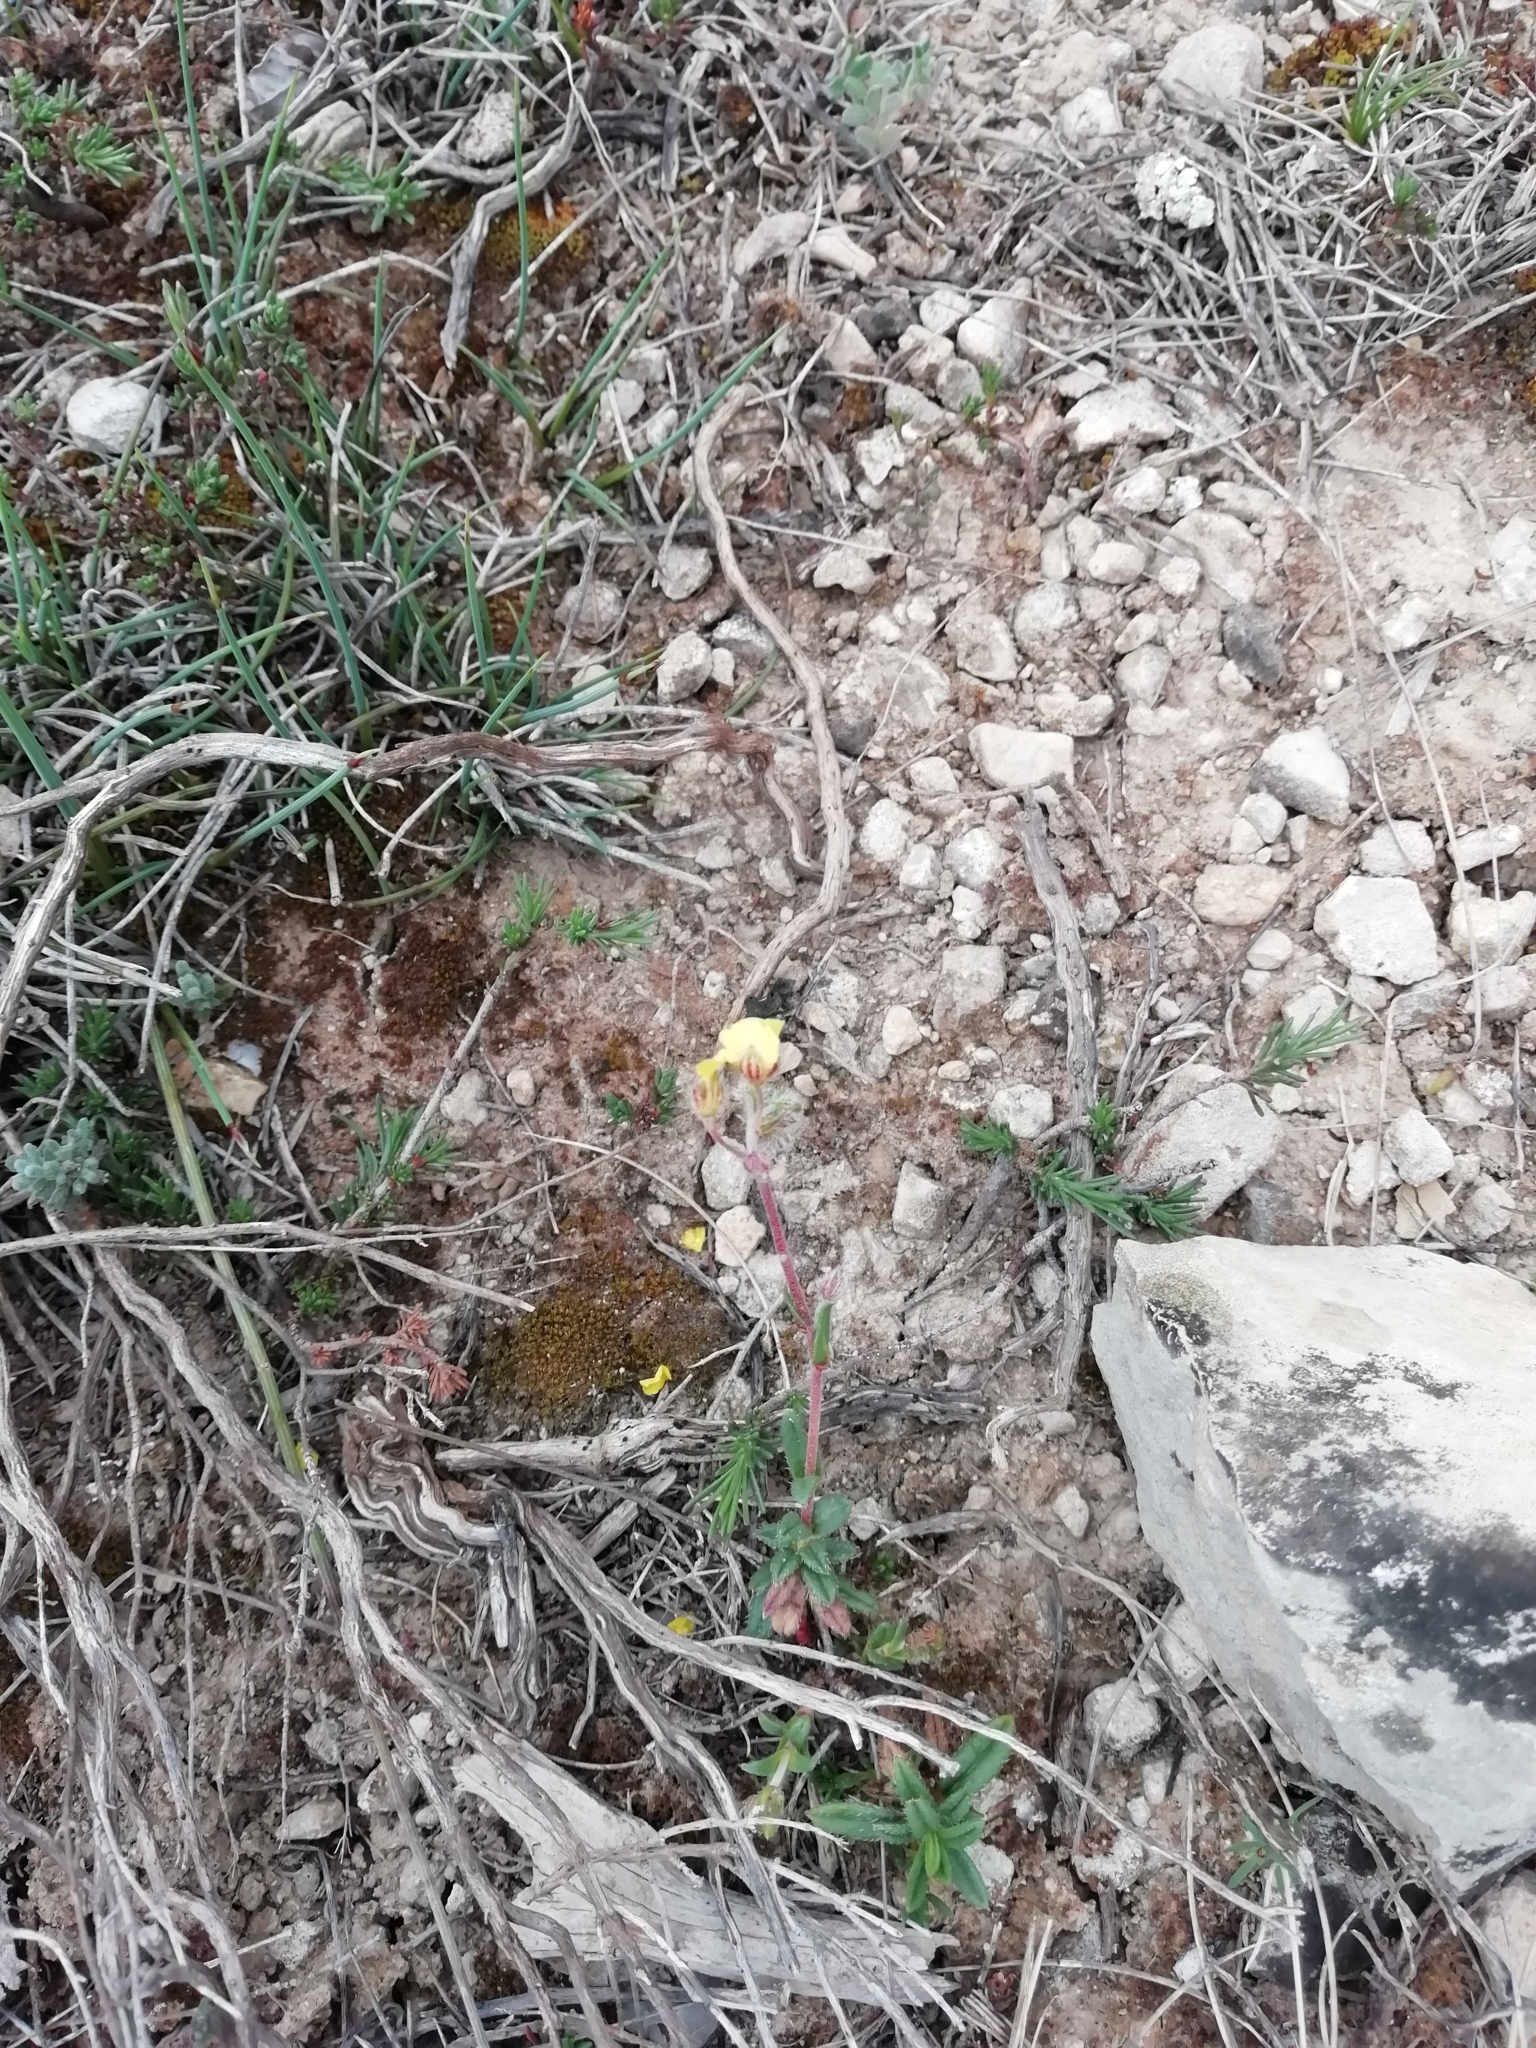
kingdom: Plantae
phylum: Tracheophyta
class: Magnoliopsida
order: Malvales
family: Cistaceae
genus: Helianthemum
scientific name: Helianthemum oelandicum
